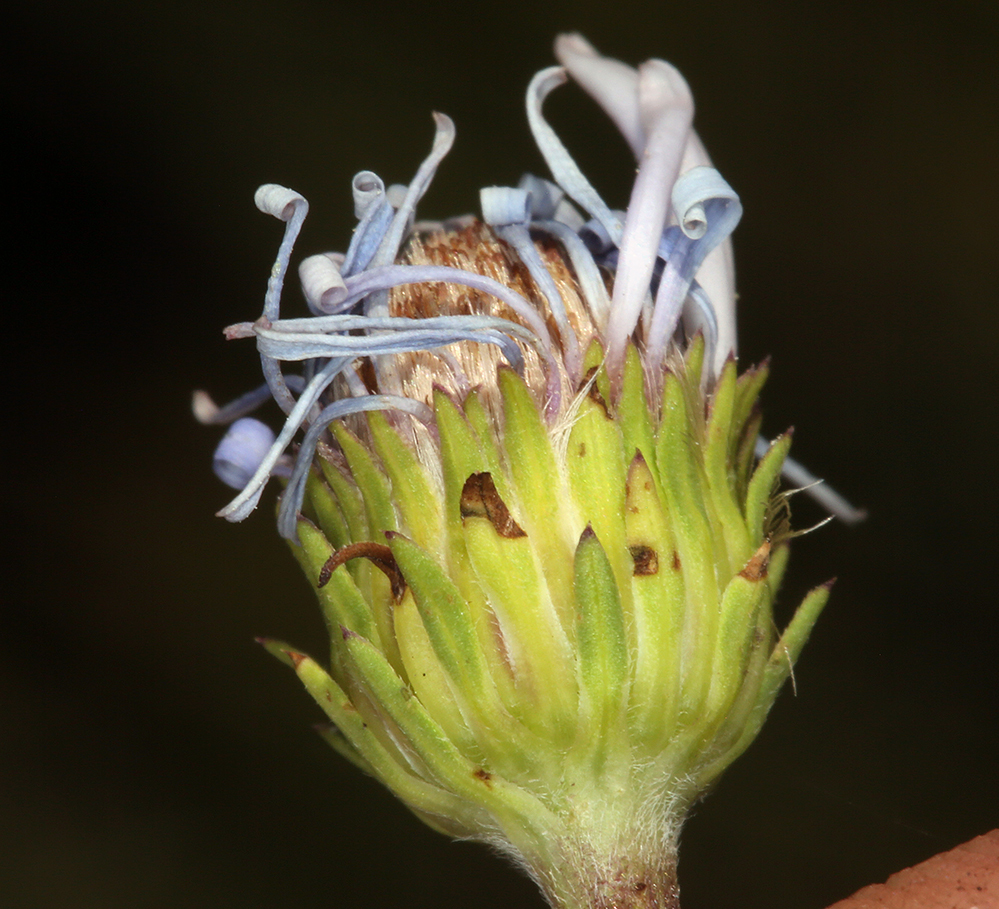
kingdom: Plantae
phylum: Tracheophyta
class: Magnoliopsida
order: Asterales
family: Asteraceae
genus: Symphyotrichum
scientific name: Symphyotrichum spathulatum
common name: Western mountain aster
